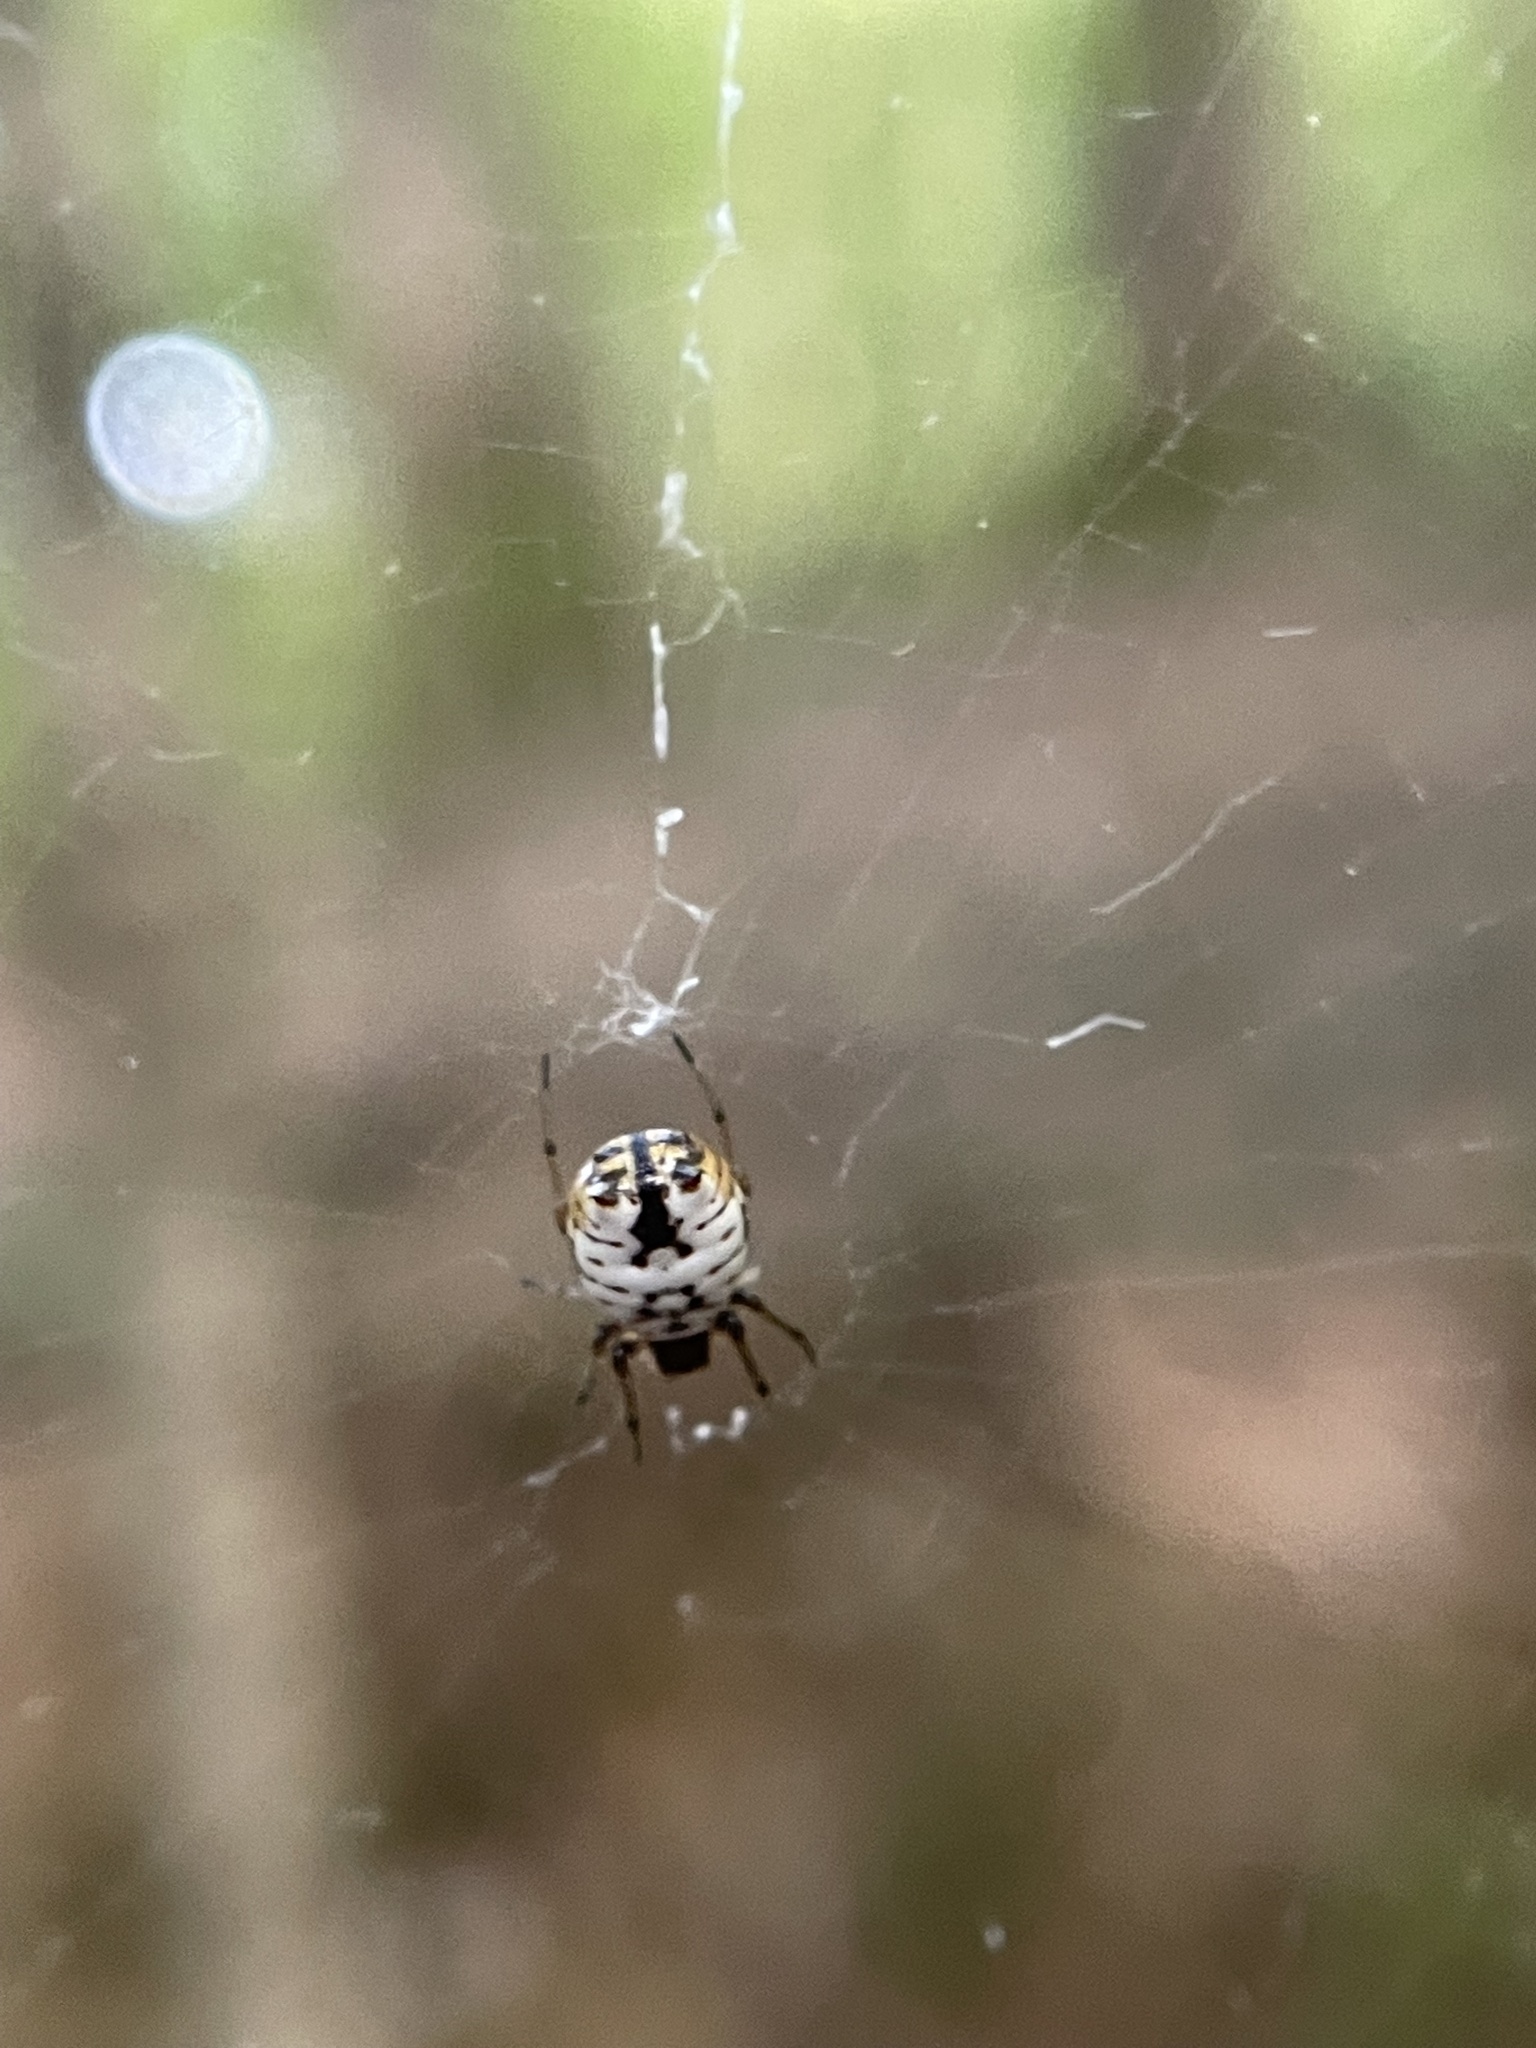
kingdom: Animalia
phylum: Arthropoda
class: Arachnida
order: Araneae
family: Araneidae
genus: Micrathena
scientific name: Micrathena mitrata
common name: Orb weavers
